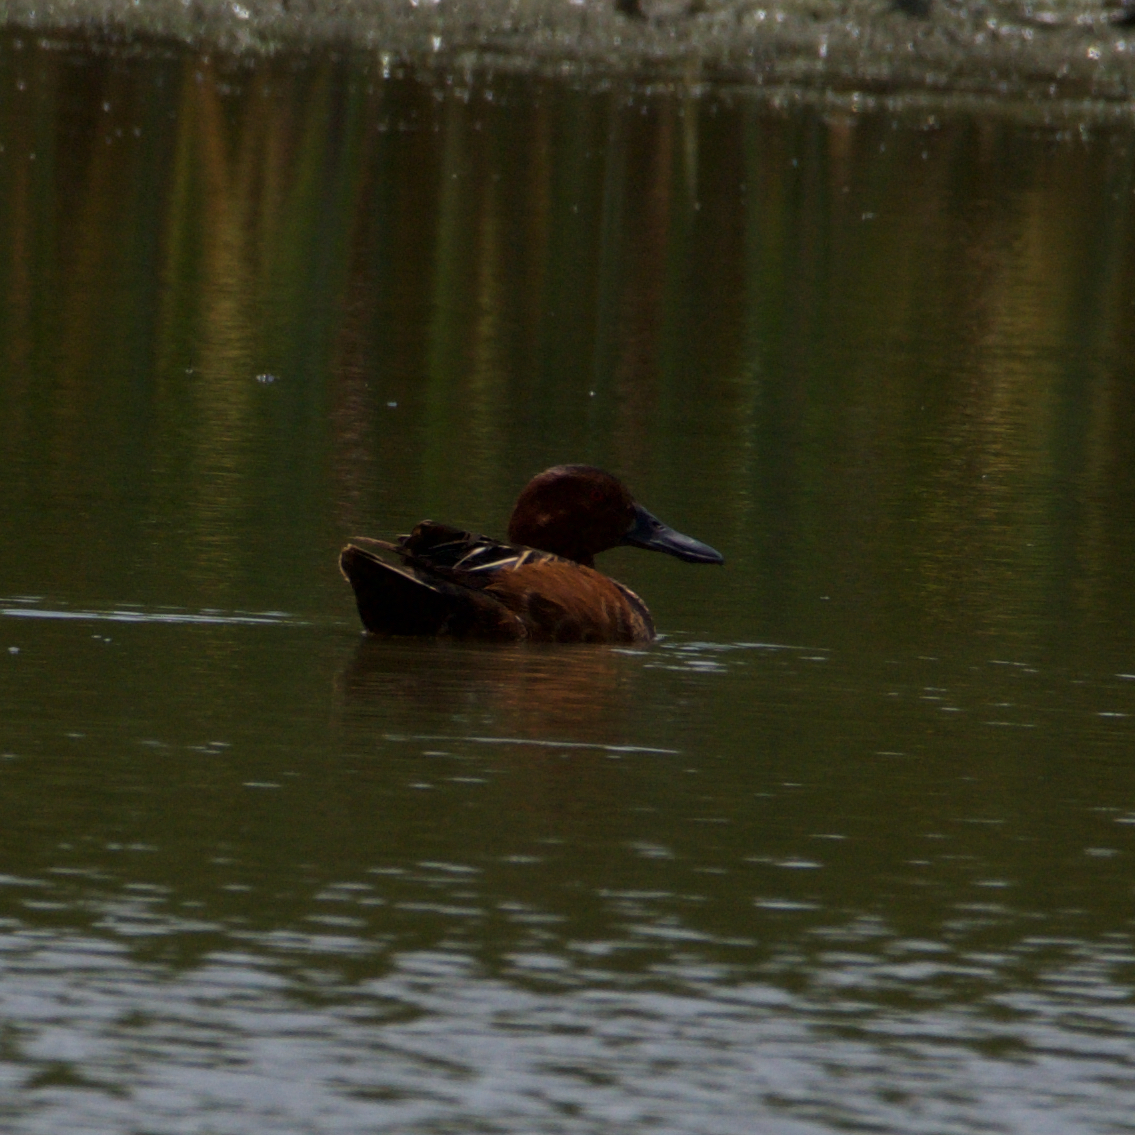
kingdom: Animalia
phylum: Chordata
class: Aves
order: Anseriformes
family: Anatidae
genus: Spatula
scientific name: Spatula cyanoptera
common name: Cinnamon teal
